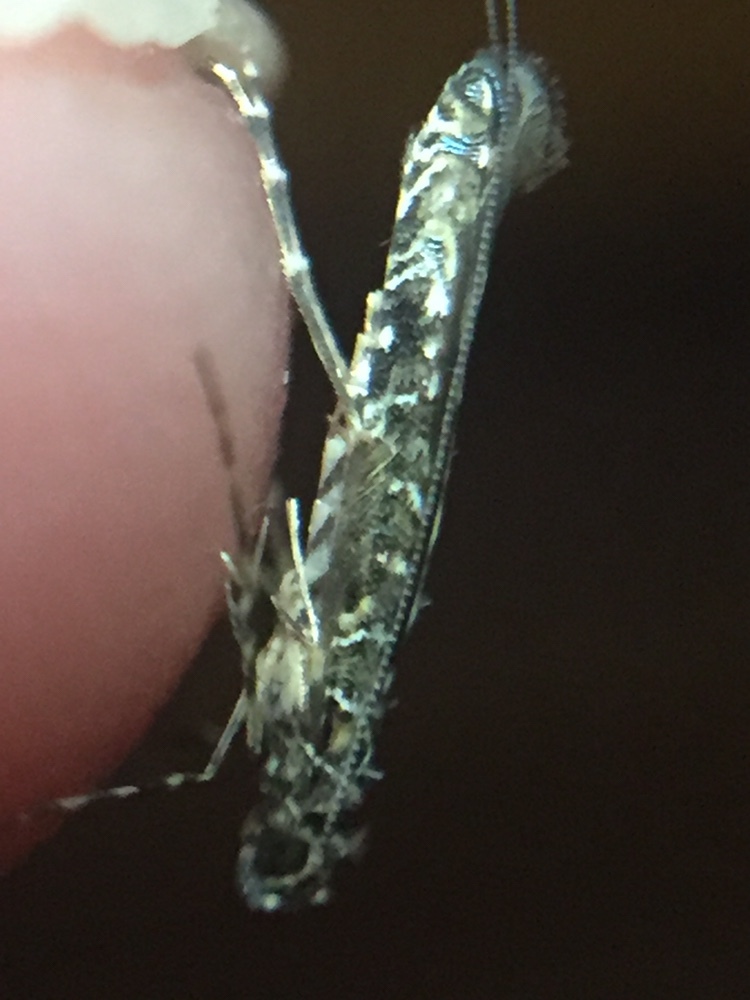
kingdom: Animalia
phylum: Arthropoda
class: Insecta
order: Lepidoptera
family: Gracillariidae
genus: Conopomorpha
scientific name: Conopomorpha cyanospila
